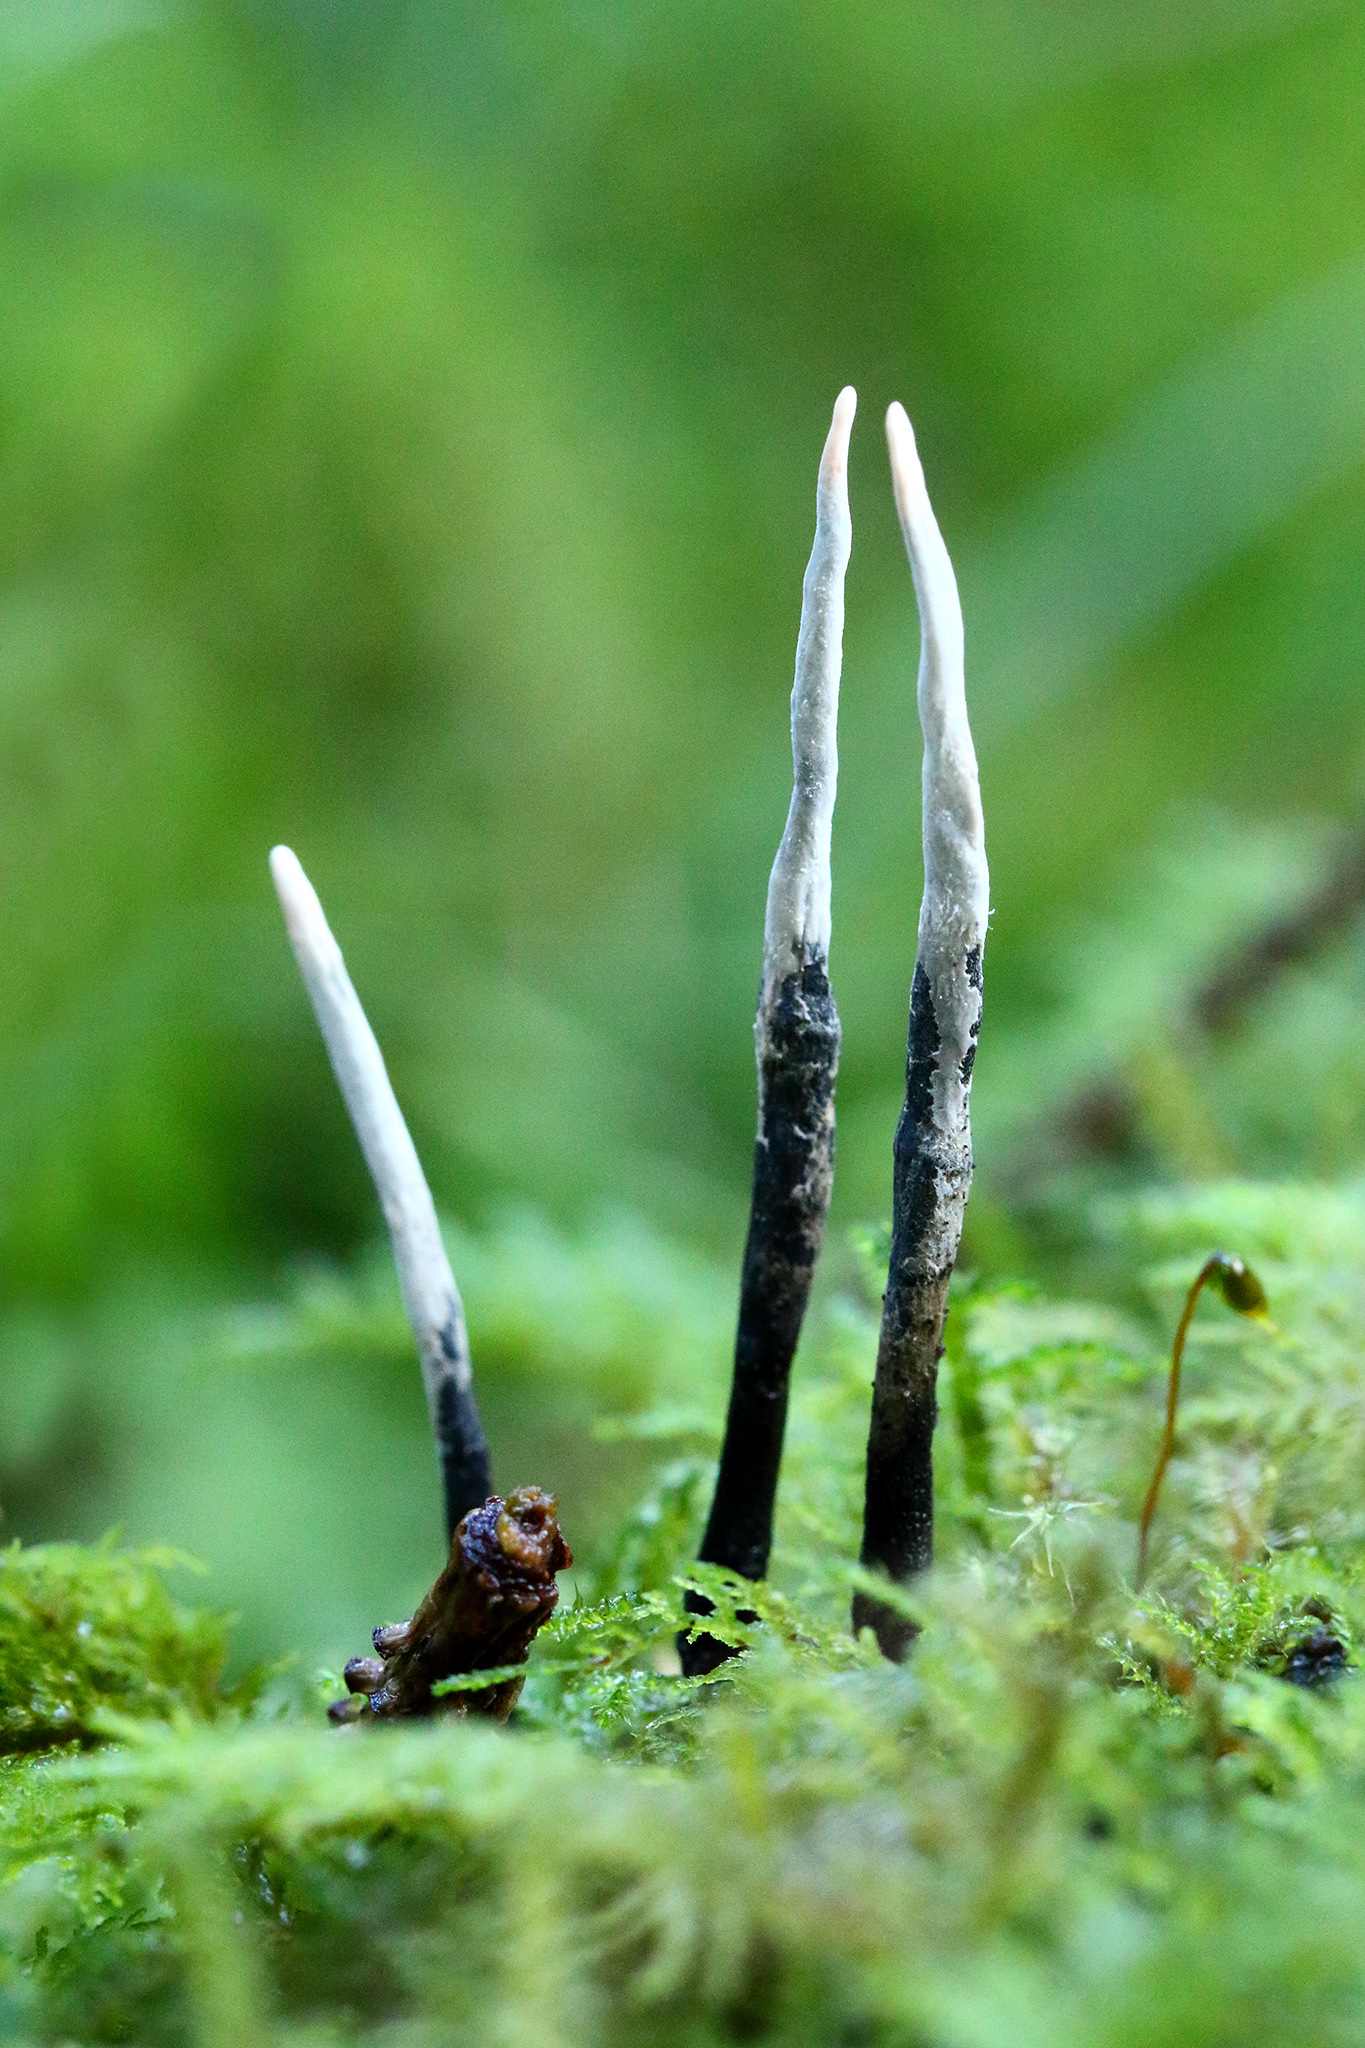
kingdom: Fungi
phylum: Ascomycota
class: Sordariomycetes
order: Xylariales
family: Xylariaceae
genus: Xylaria
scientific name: Xylaria hypoxylon
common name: Candle-snuff fungus
